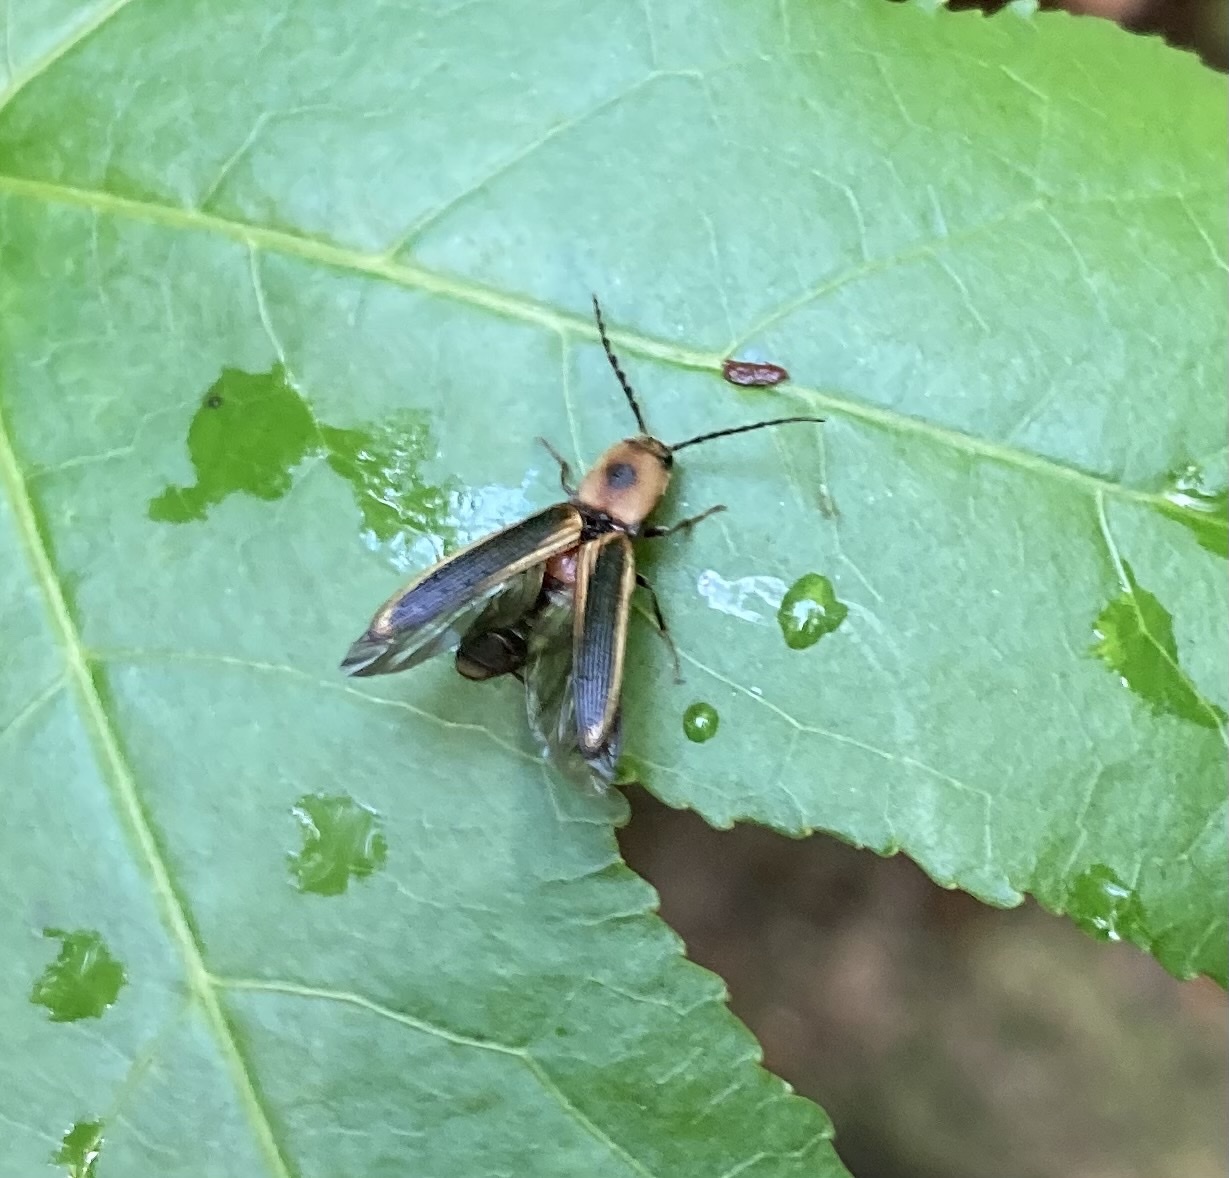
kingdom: Animalia
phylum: Arthropoda
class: Insecta
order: Coleoptera
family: Elateridae
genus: Megapenthes
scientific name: Megapenthes
